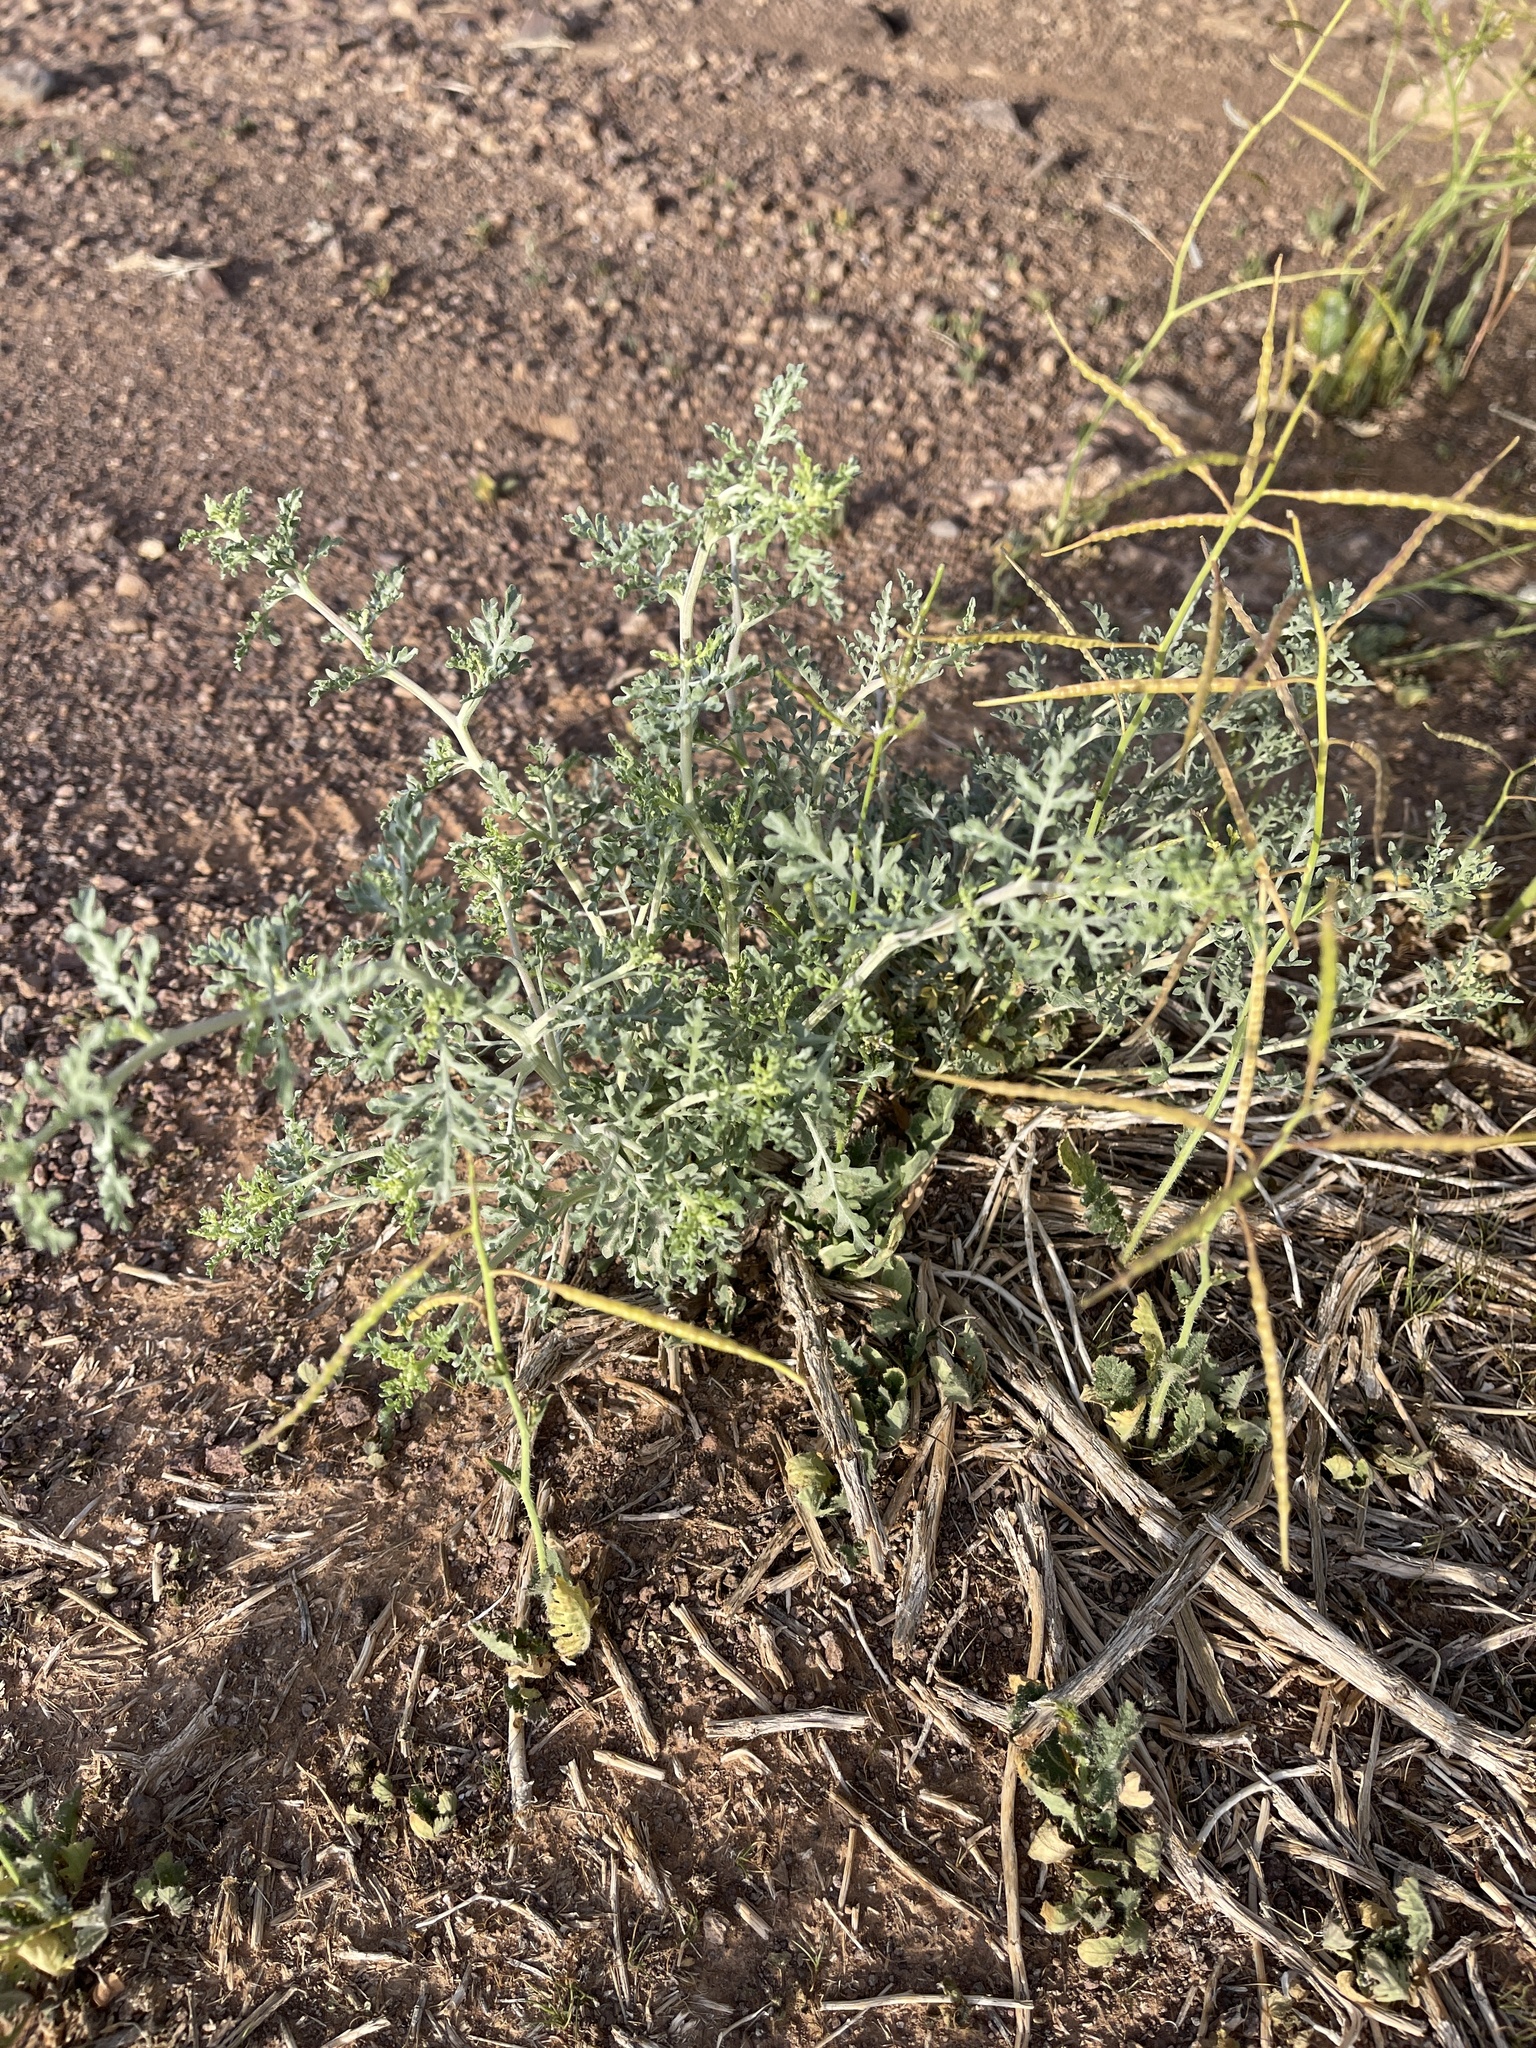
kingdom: Plantae
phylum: Tracheophyta
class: Magnoliopsida
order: Asterales
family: Asteraceae
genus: Ambrosia
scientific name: Ambrosia dumosa
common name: Bur-sage
